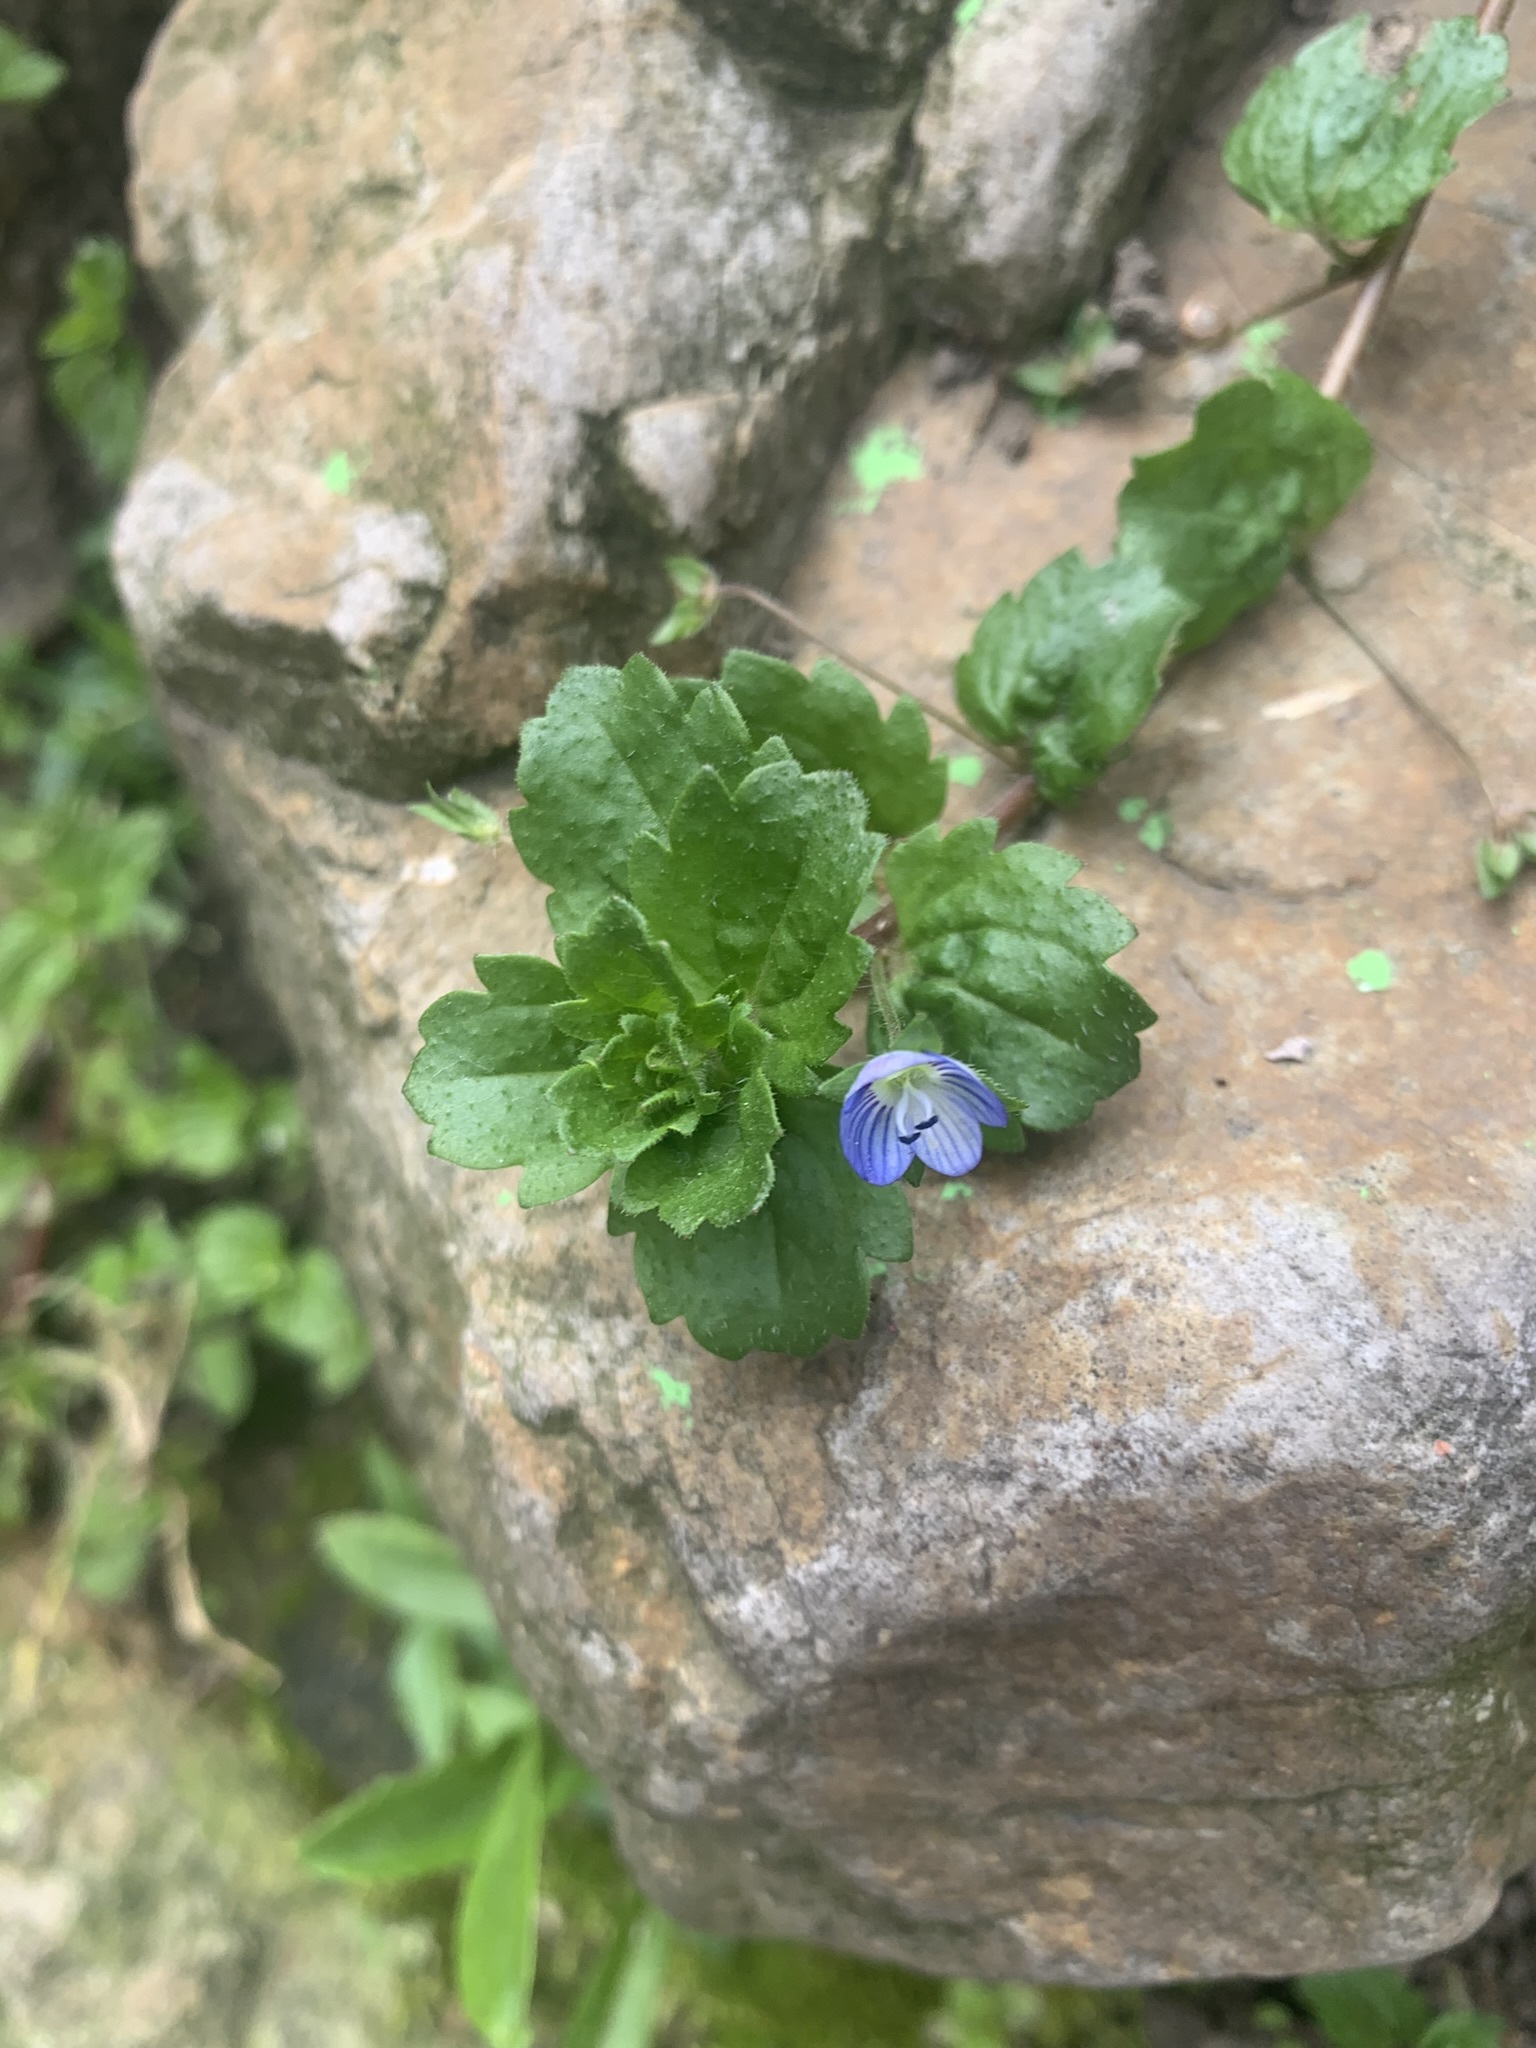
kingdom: Plantae
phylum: Tracheophyta
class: Magnoliopsida
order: Lamiales
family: Plantaginaceae
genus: Veronica
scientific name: Veronica persica
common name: Common field-speedwell
